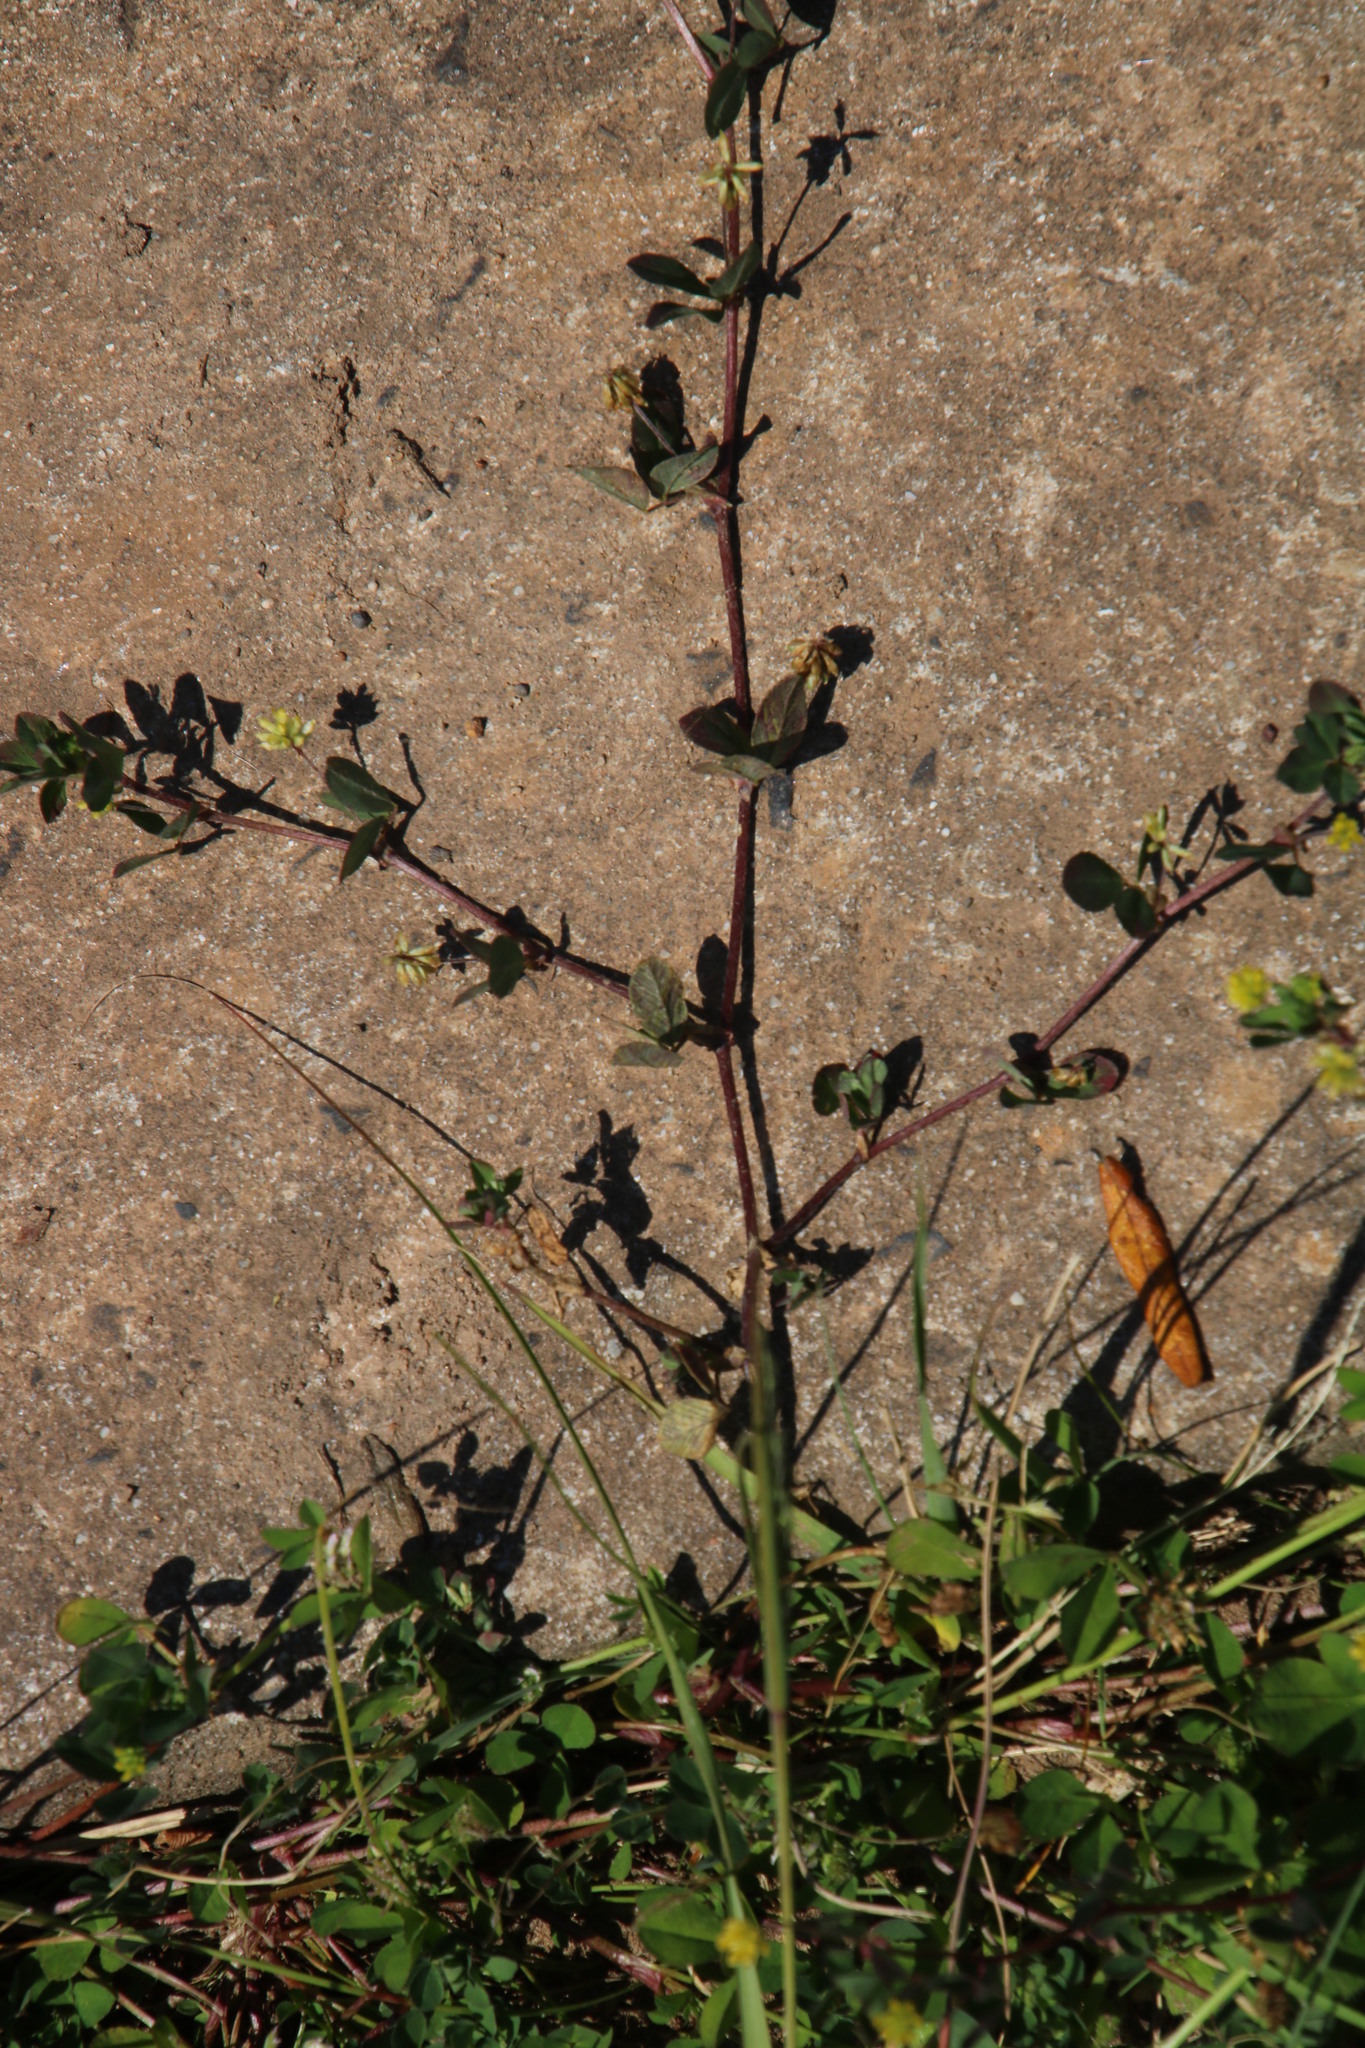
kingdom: Plantae
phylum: Tracheophyta
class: Magnoliopsida
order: Fabales
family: Fabaceae
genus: Trifolium
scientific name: Trifolium dubium
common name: Suckling clover
